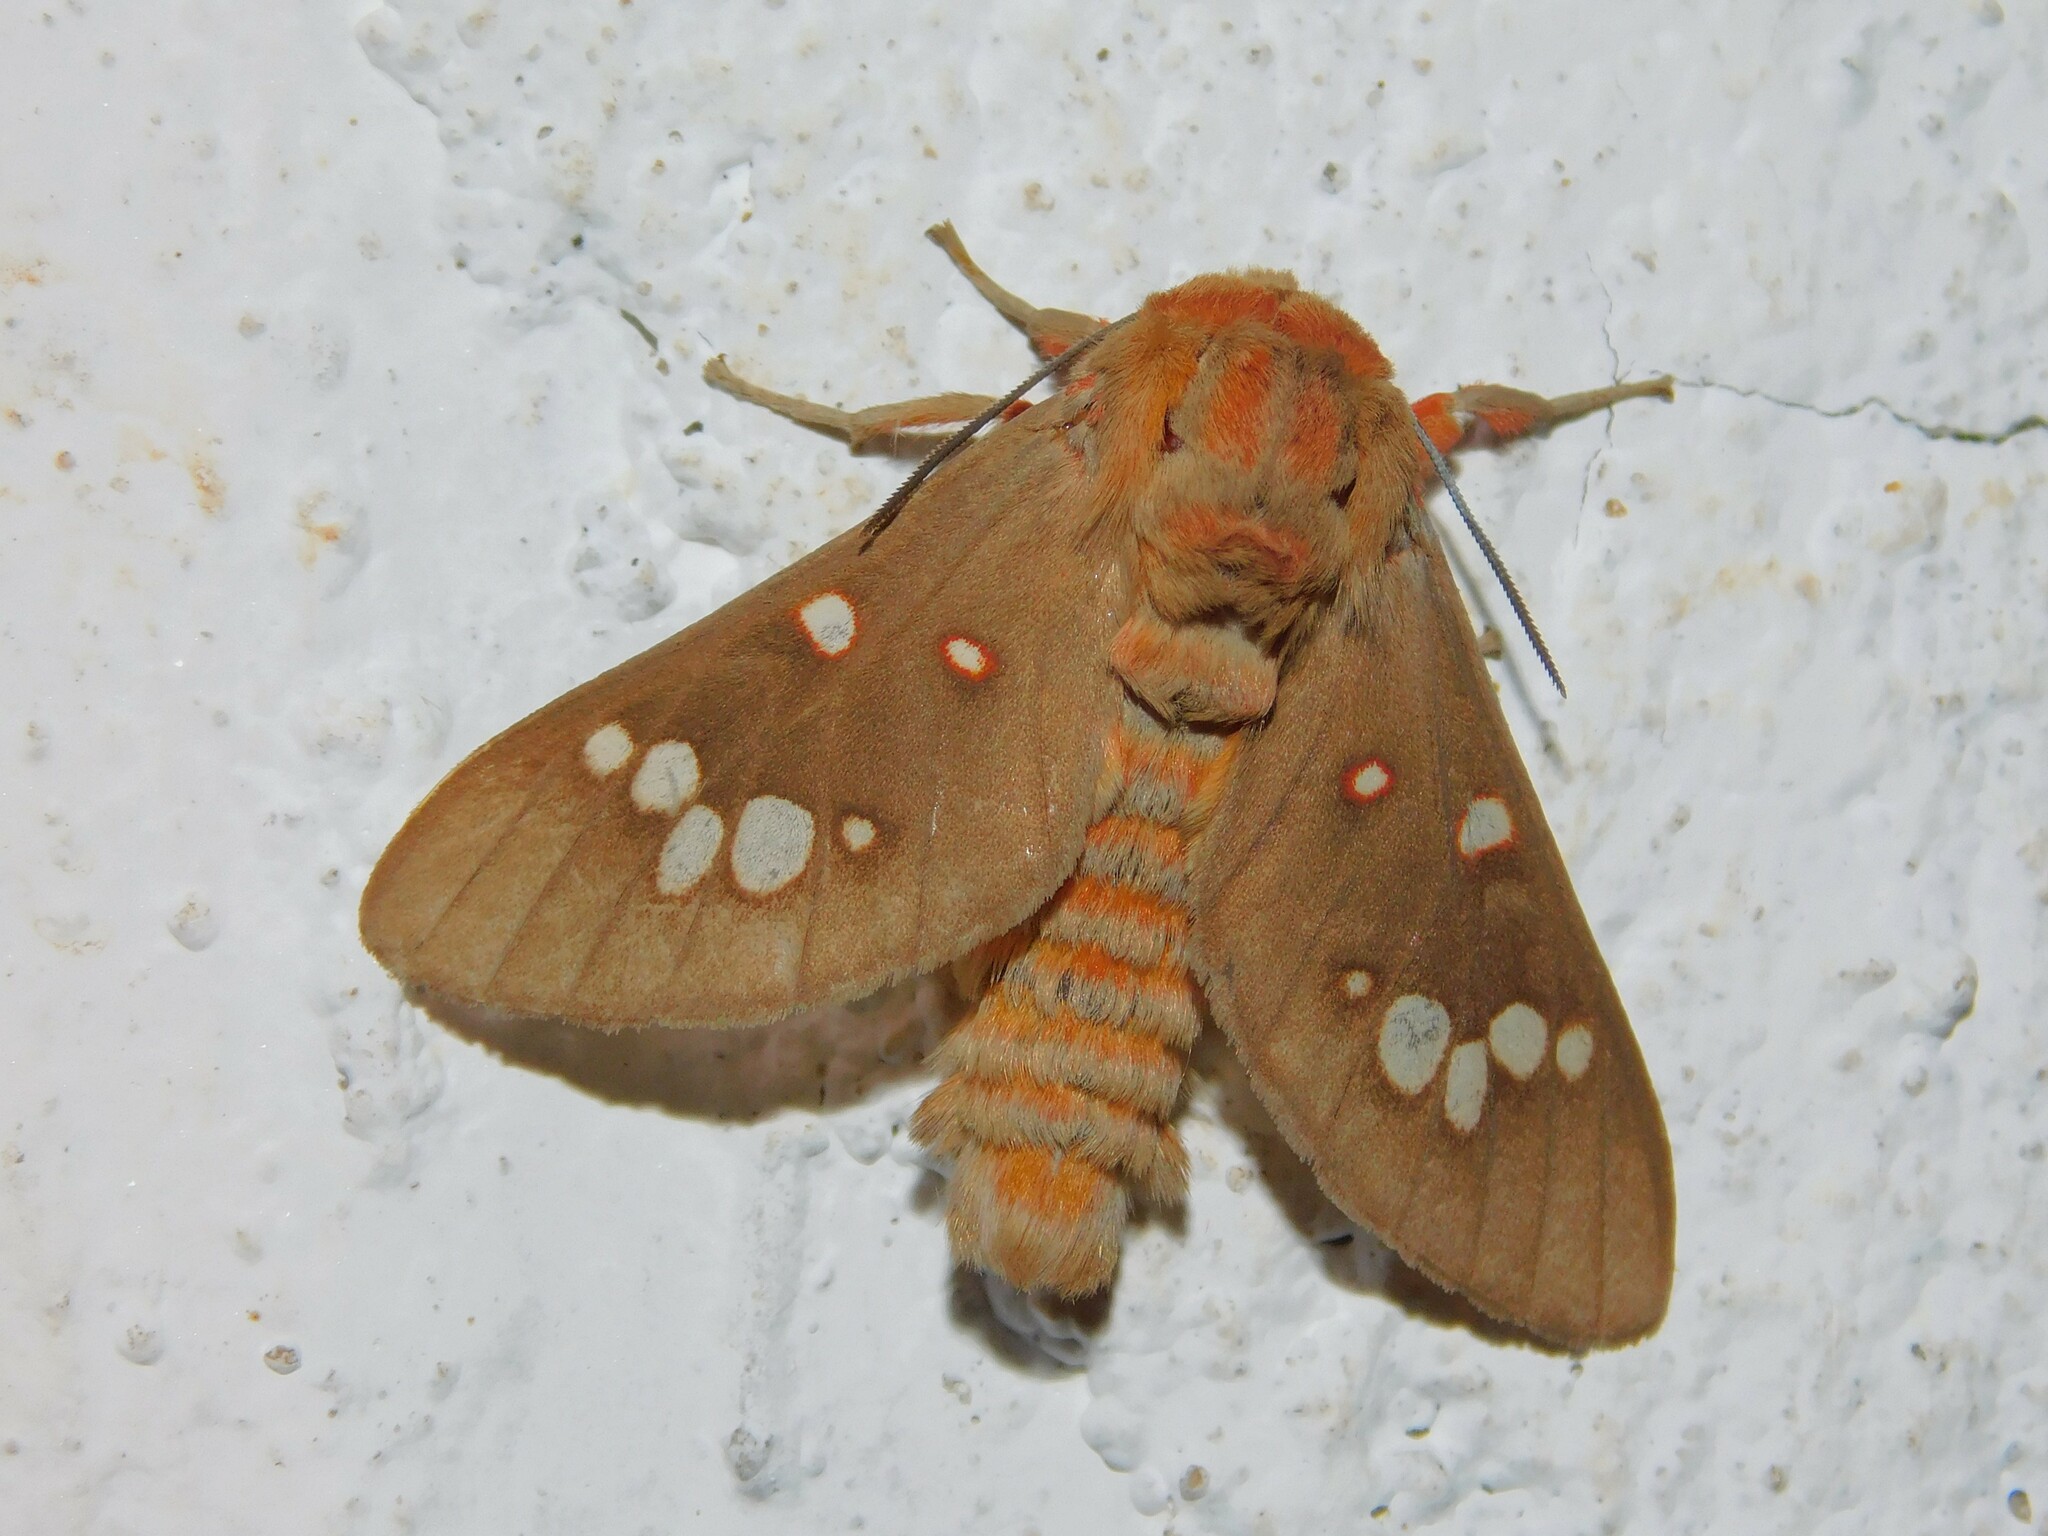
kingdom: Animalia
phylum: Arthropoda
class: Insecta
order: Lepidoptera
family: Erebidae
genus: Balacra
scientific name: Balacra preussi
